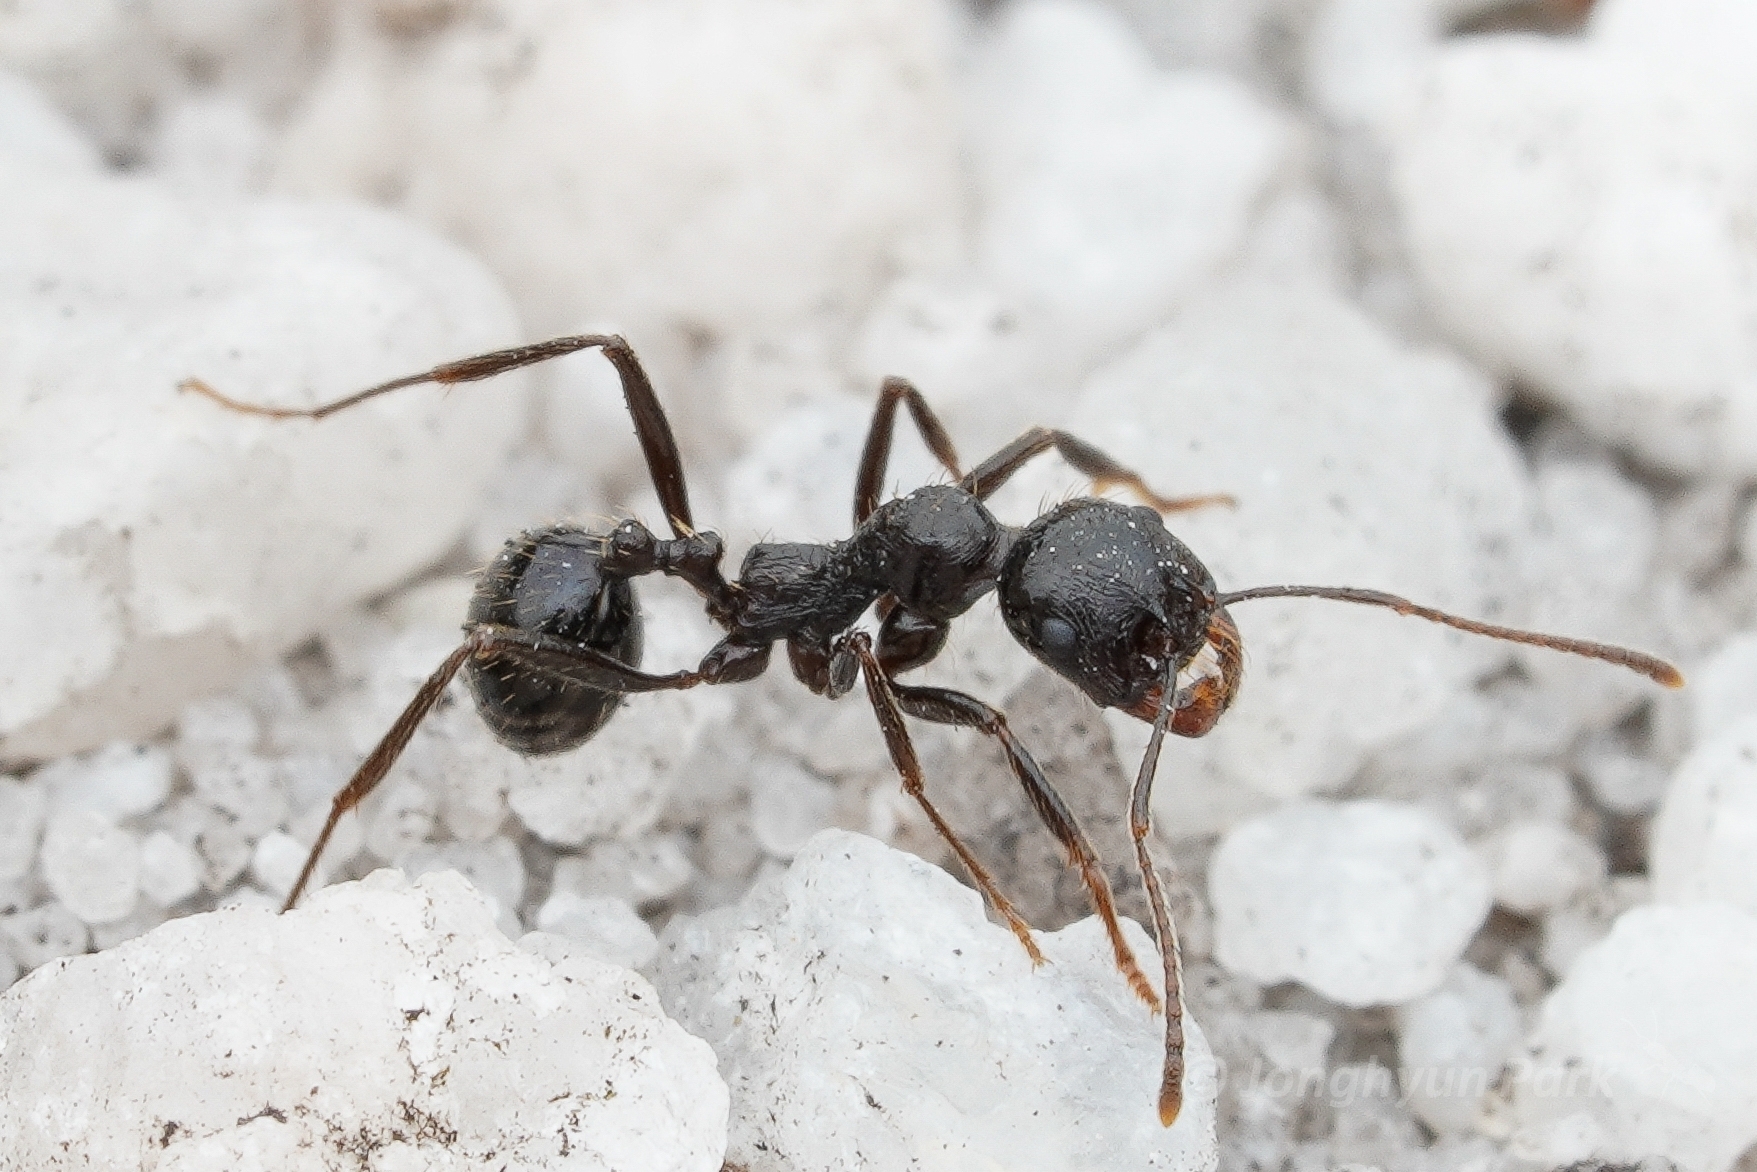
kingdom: Animalia
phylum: Arthropoda
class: Insecta
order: Hymenoptera
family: Formicidae
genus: Messor
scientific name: Messor denticornis
